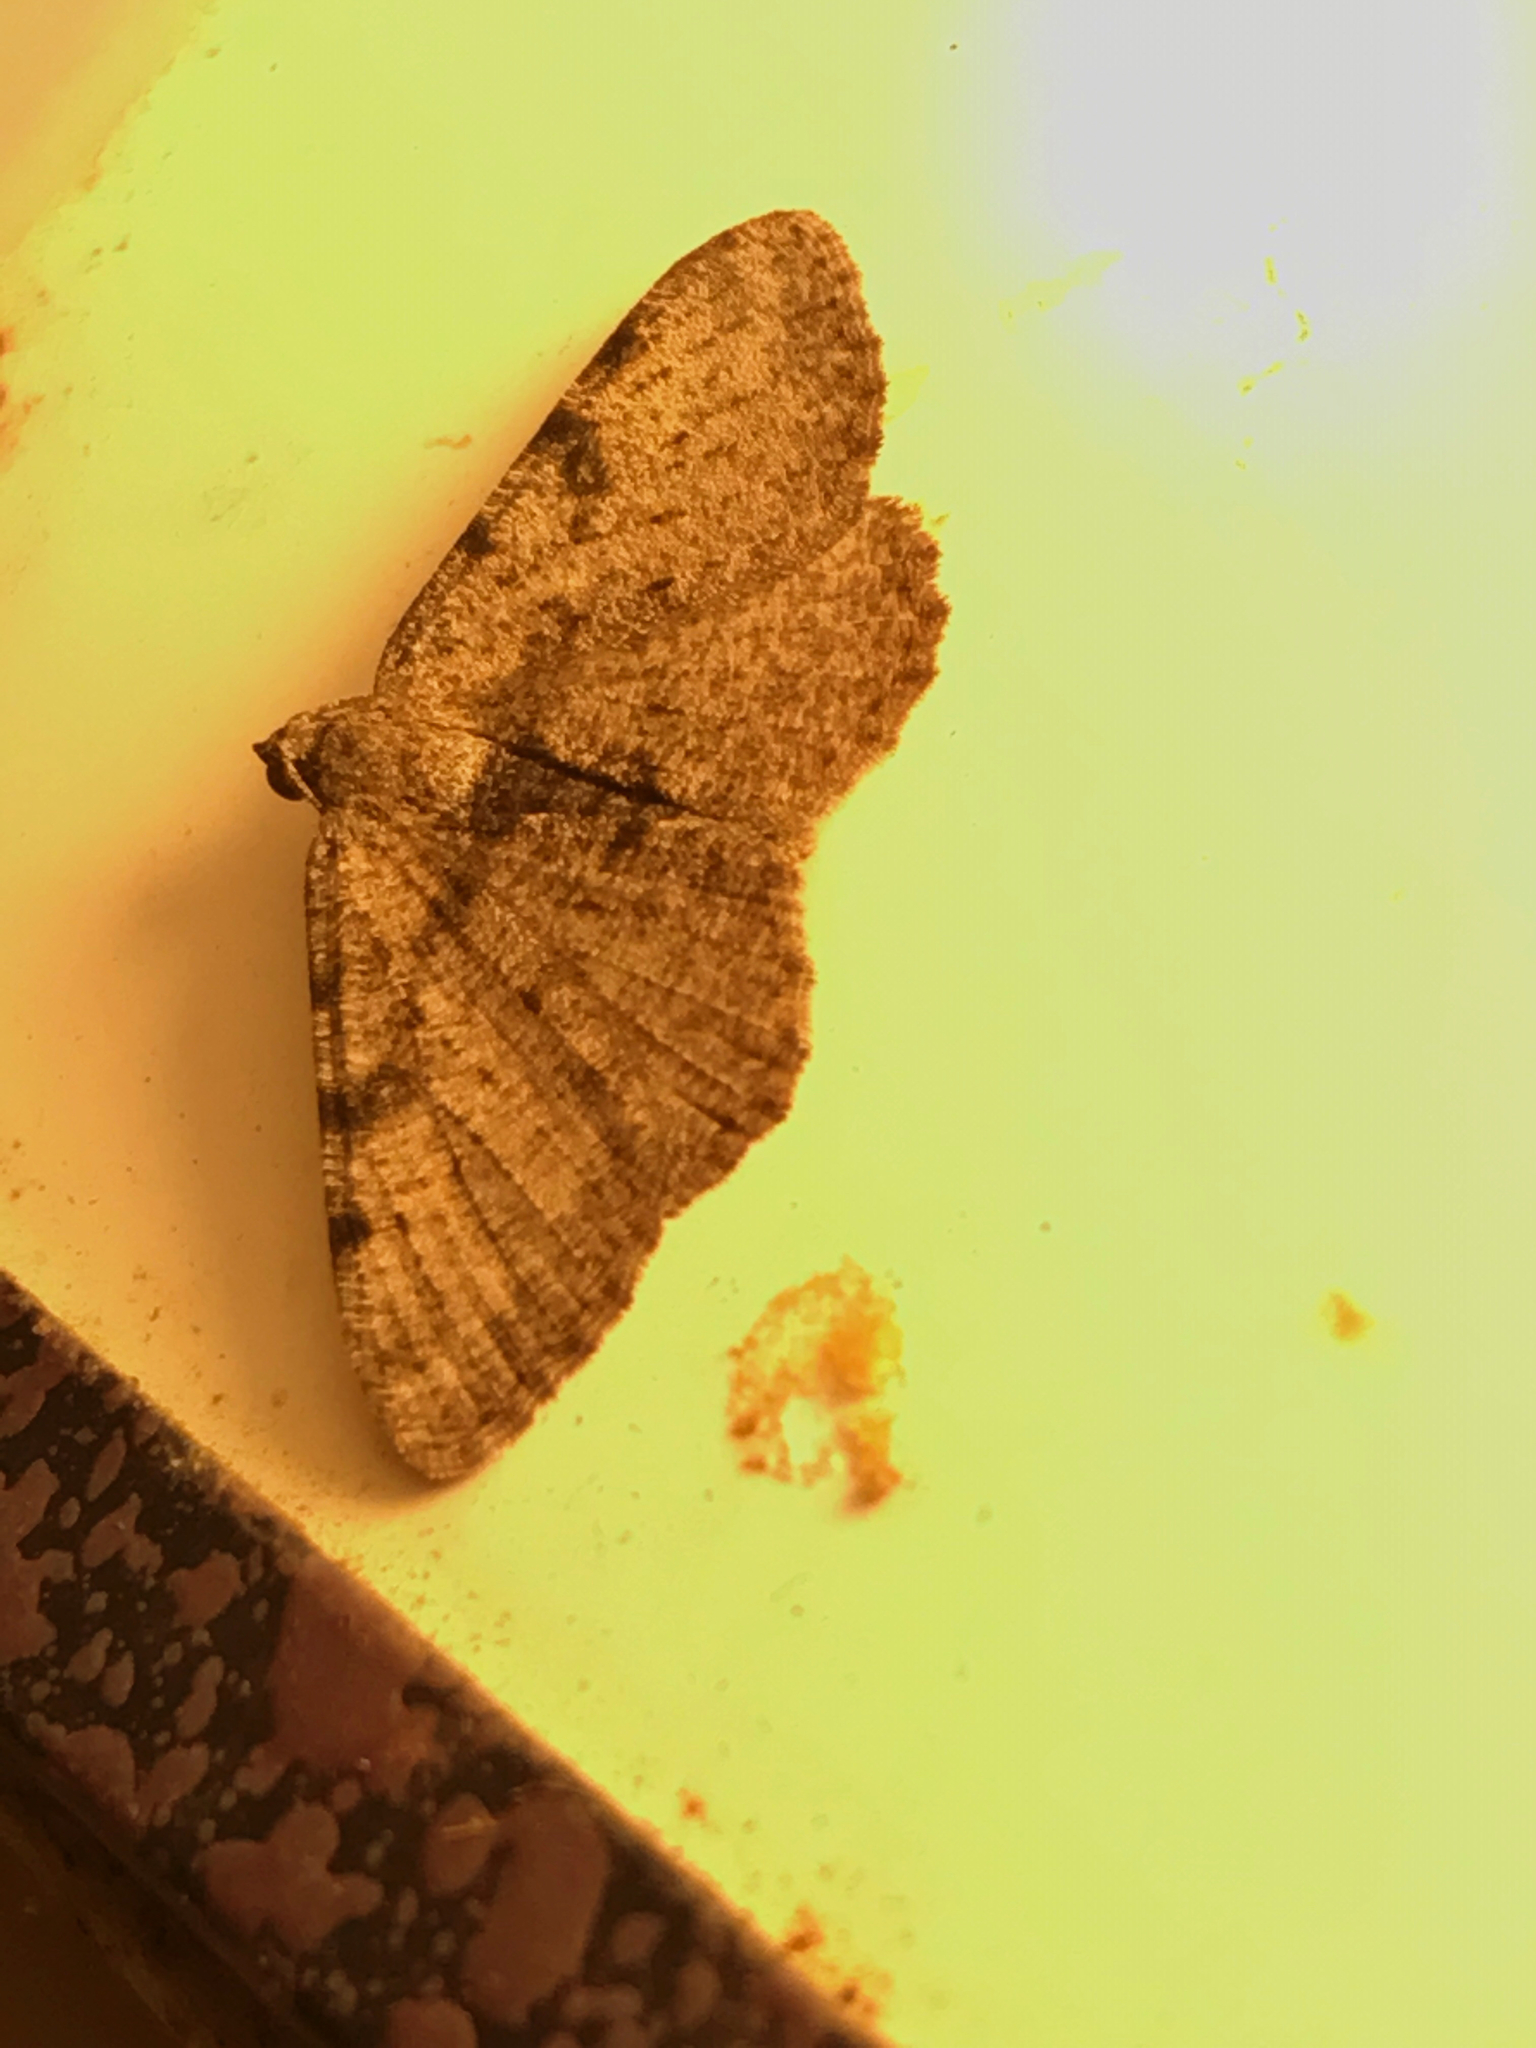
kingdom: Animalia
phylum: Arthropoda
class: Insecta
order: Lepidoptera
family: Geometridae
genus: Digrammia
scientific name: Digrammia gnophosaria
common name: Hollow-spotted angle
